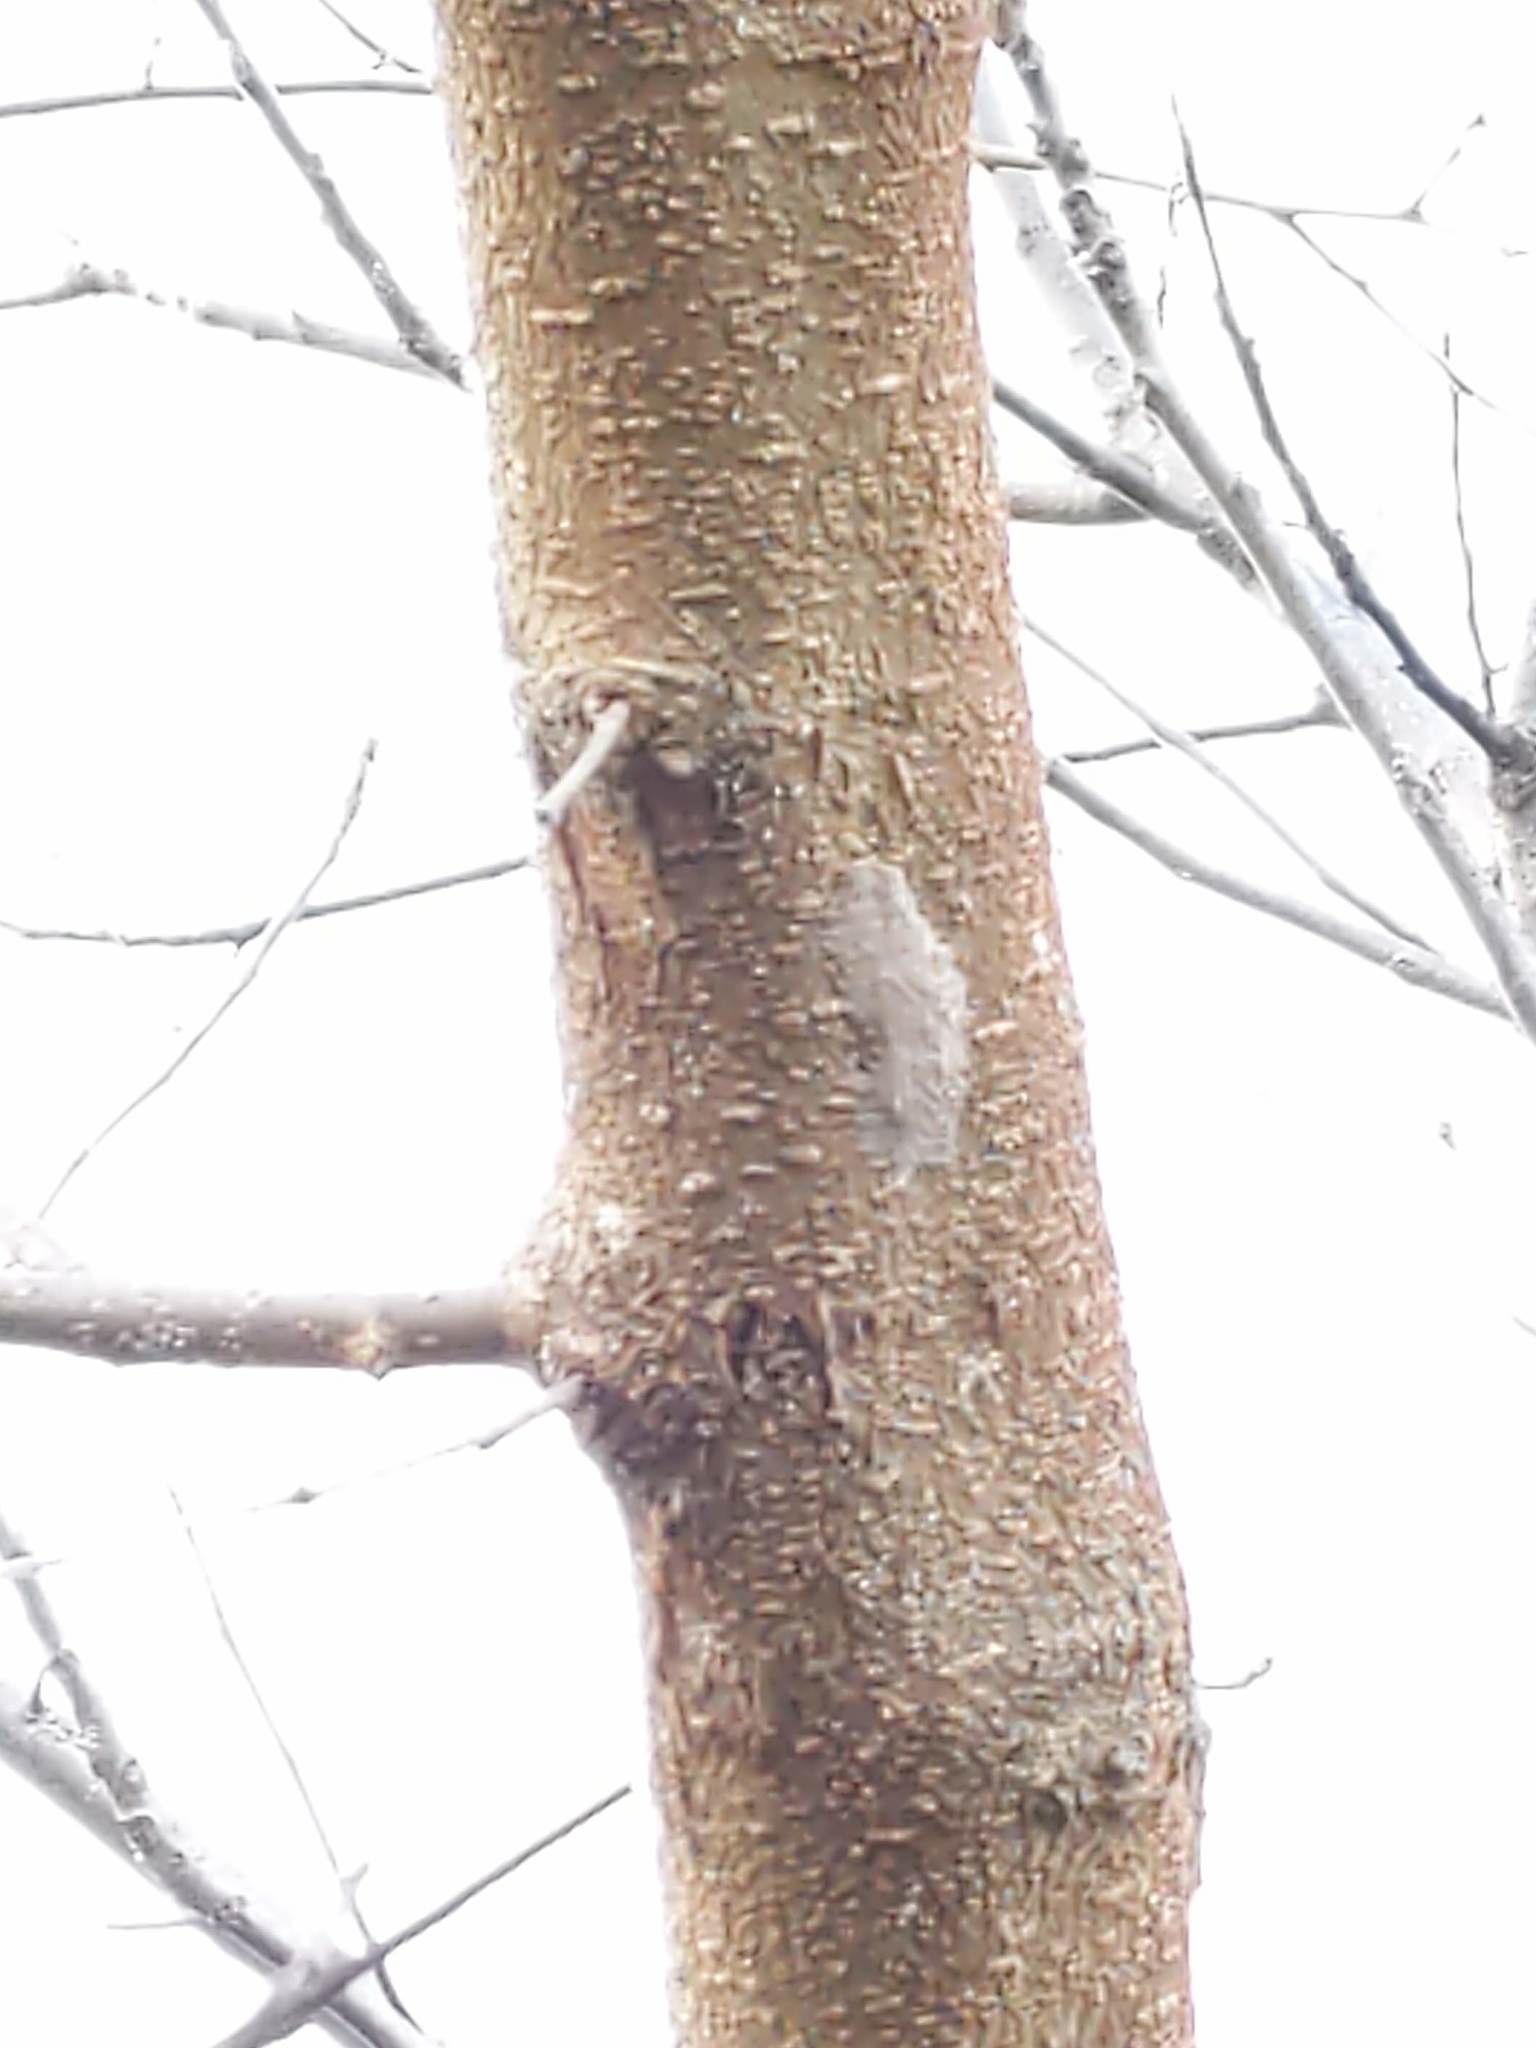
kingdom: Animalia
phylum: Arthropoda
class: Insecta
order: Hemiptera
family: Fulgoridae
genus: Lycorma
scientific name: Lycorma delicatula
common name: Spotted lanternfly
